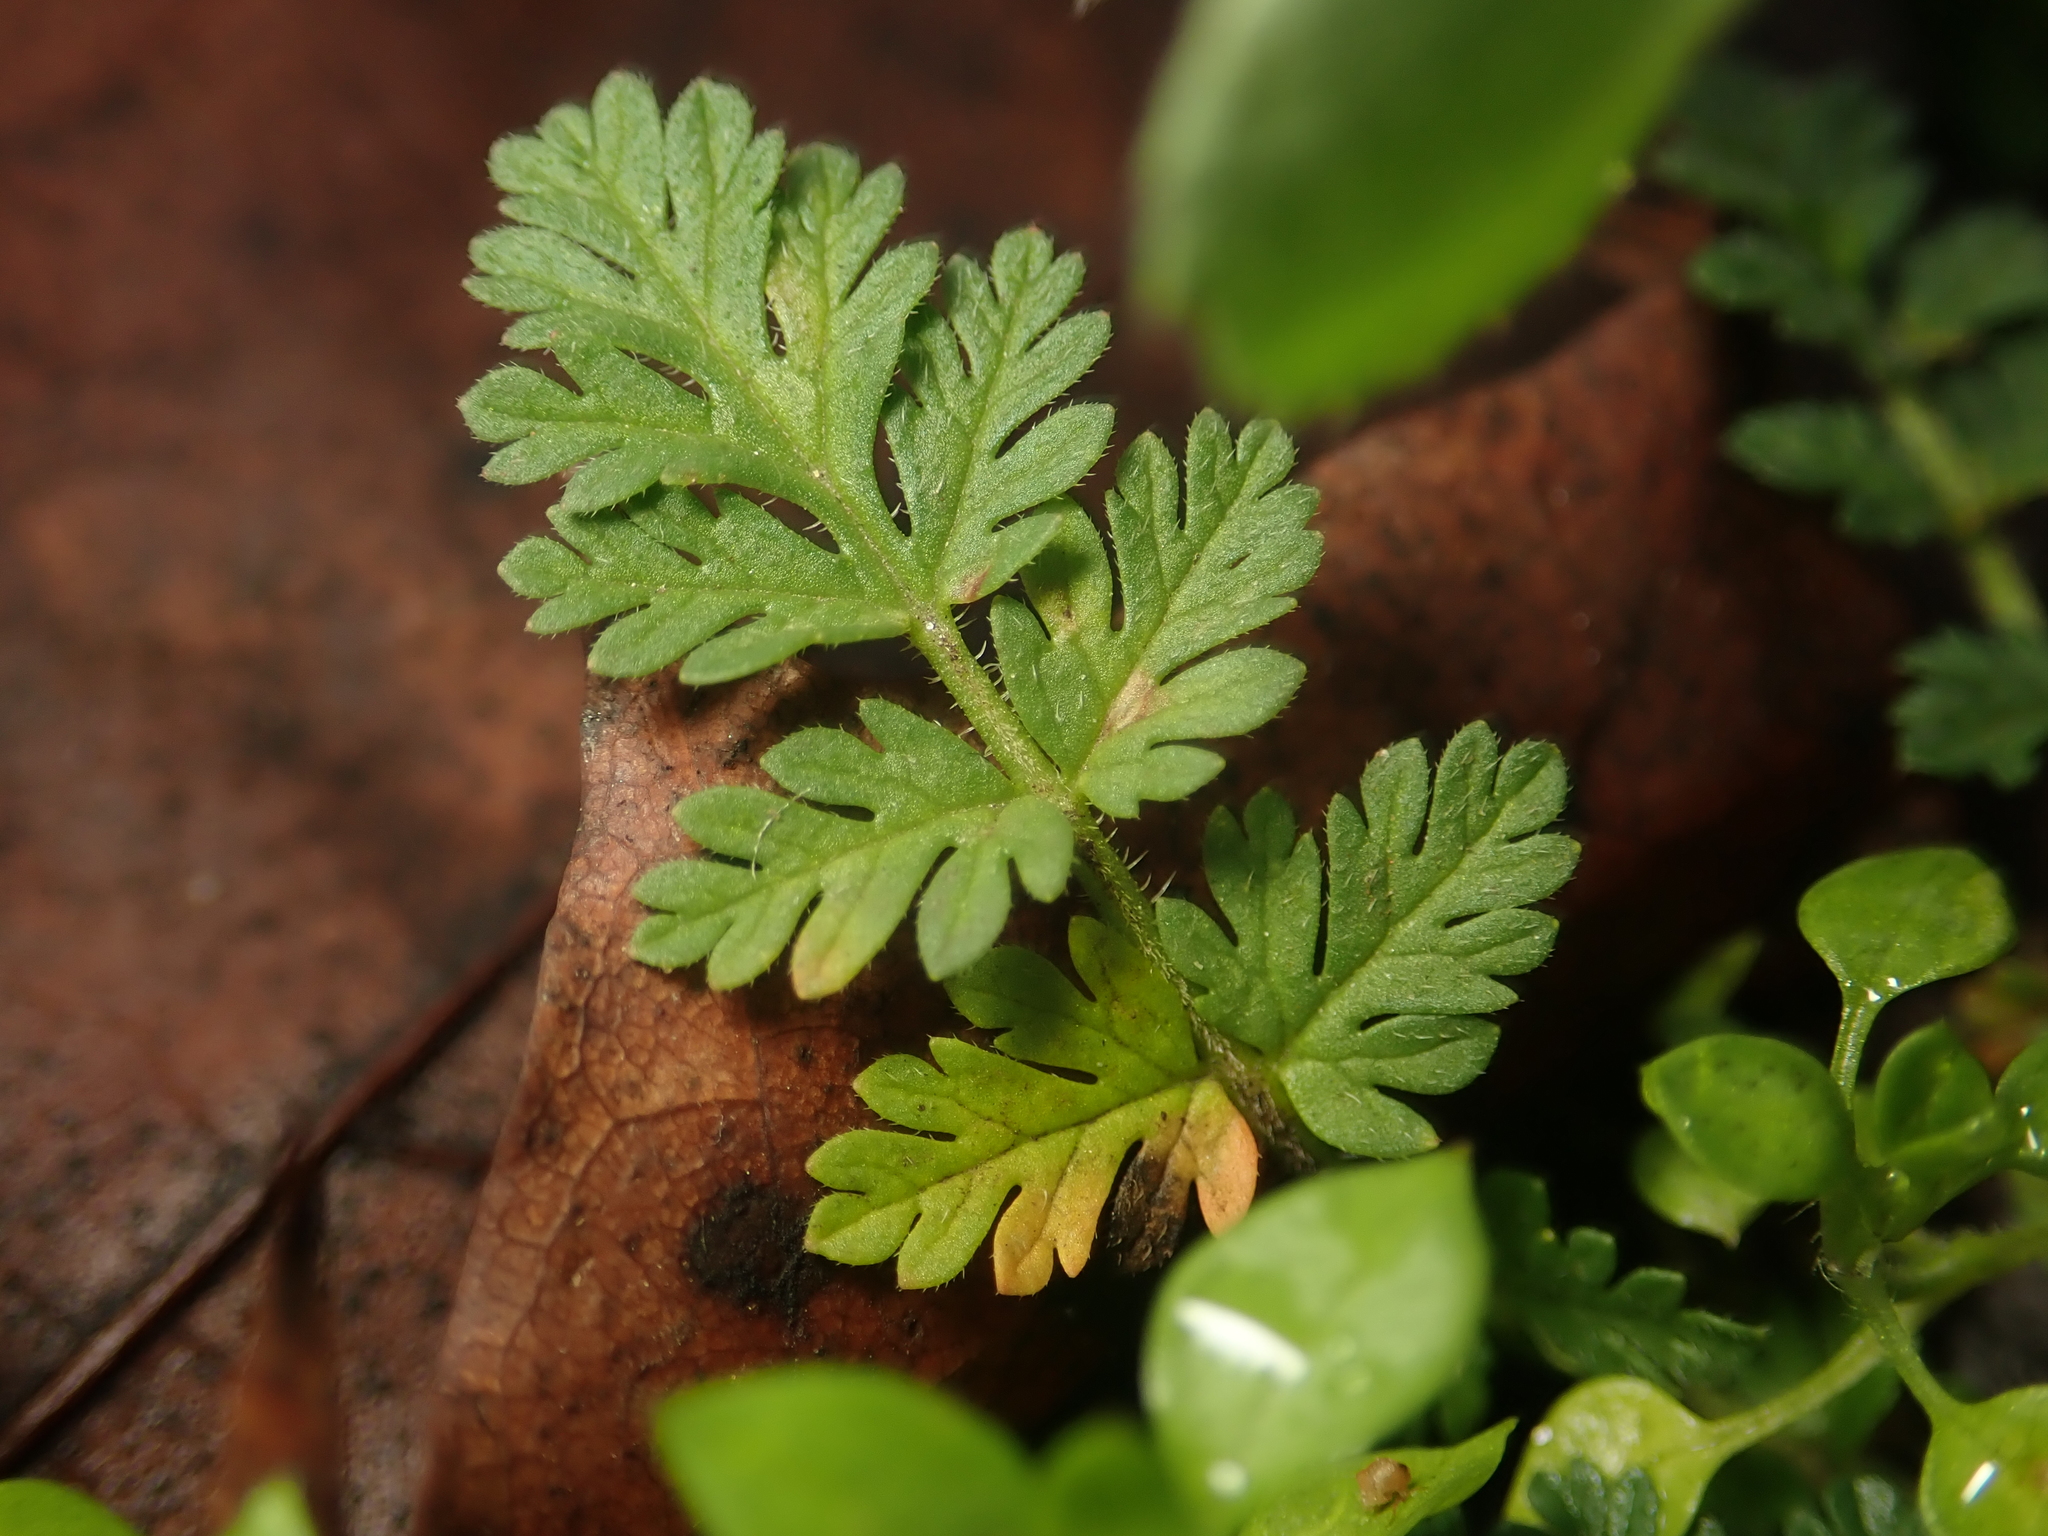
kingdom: Plantae
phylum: Tracheophyta
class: Magnoliopsida
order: Geraniales
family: Geraniaceae
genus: Erodium
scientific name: Erodium cicutarium
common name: Common stork's-bill
